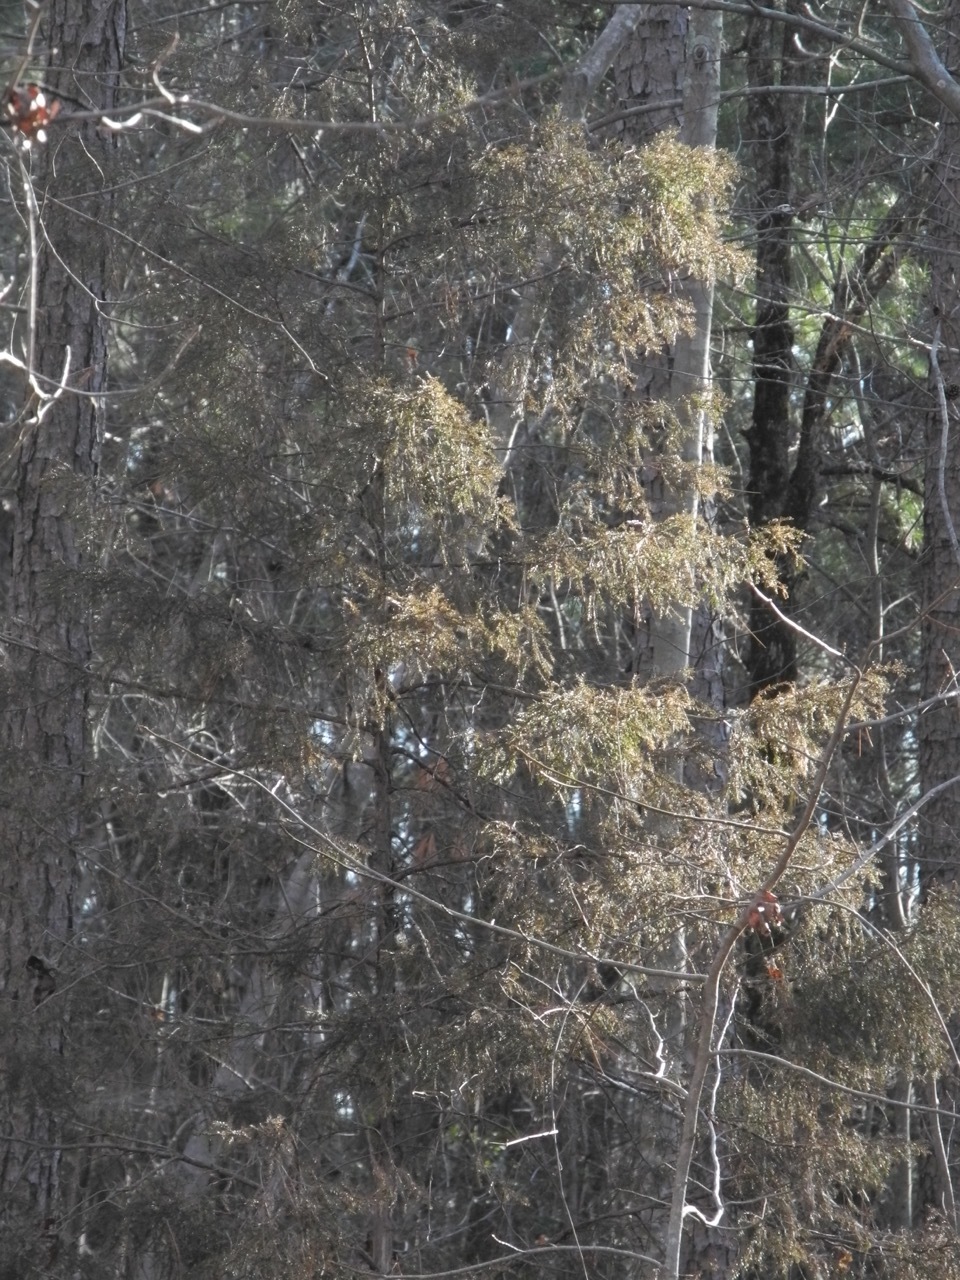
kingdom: Plantae
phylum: Tracheophyta
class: Pinopsida
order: Pinales
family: Cupressaceae
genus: Juniperus
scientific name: Juniperus virginiana
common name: Red juniper
